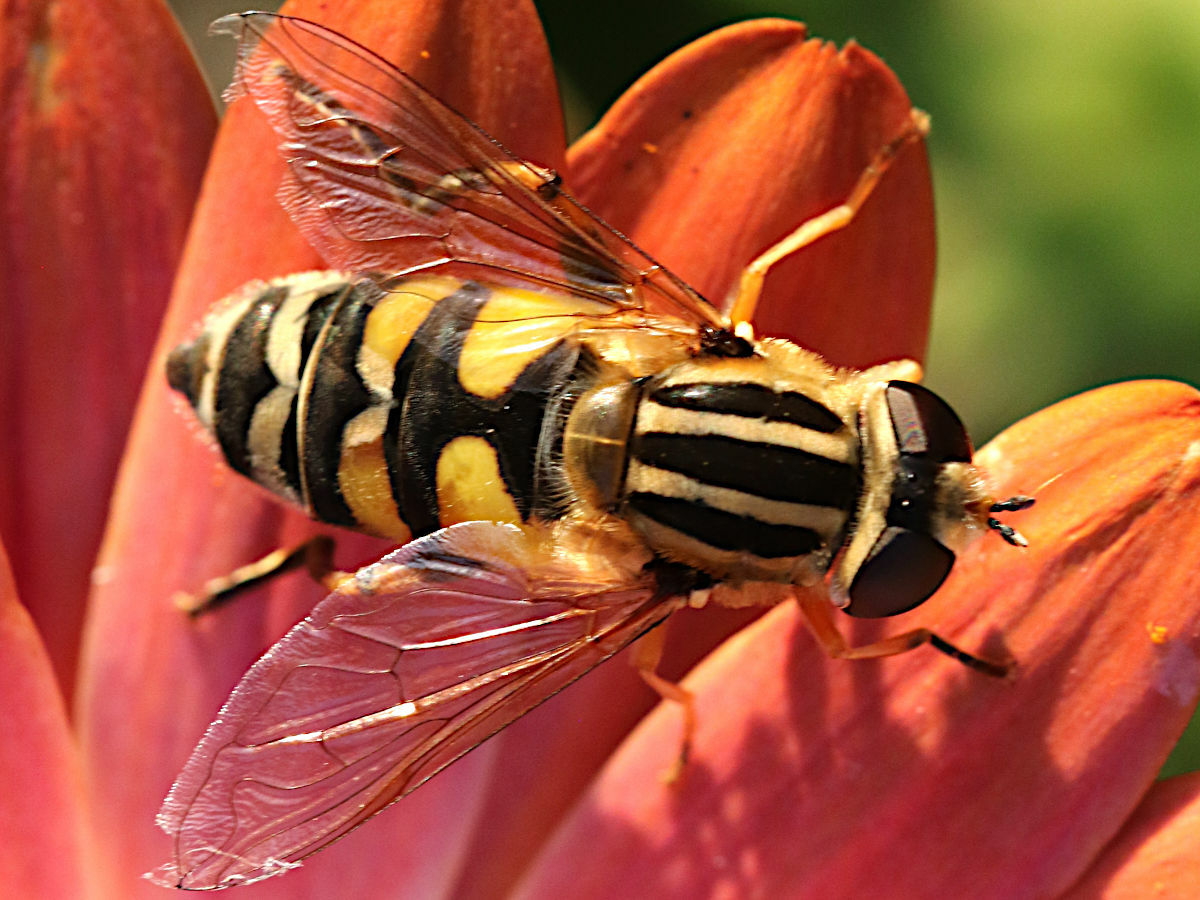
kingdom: Animalia
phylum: Arthropoda
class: Insecta
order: Diptera
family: Syrphidae
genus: Helophilus
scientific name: Helophilus trivittatus
